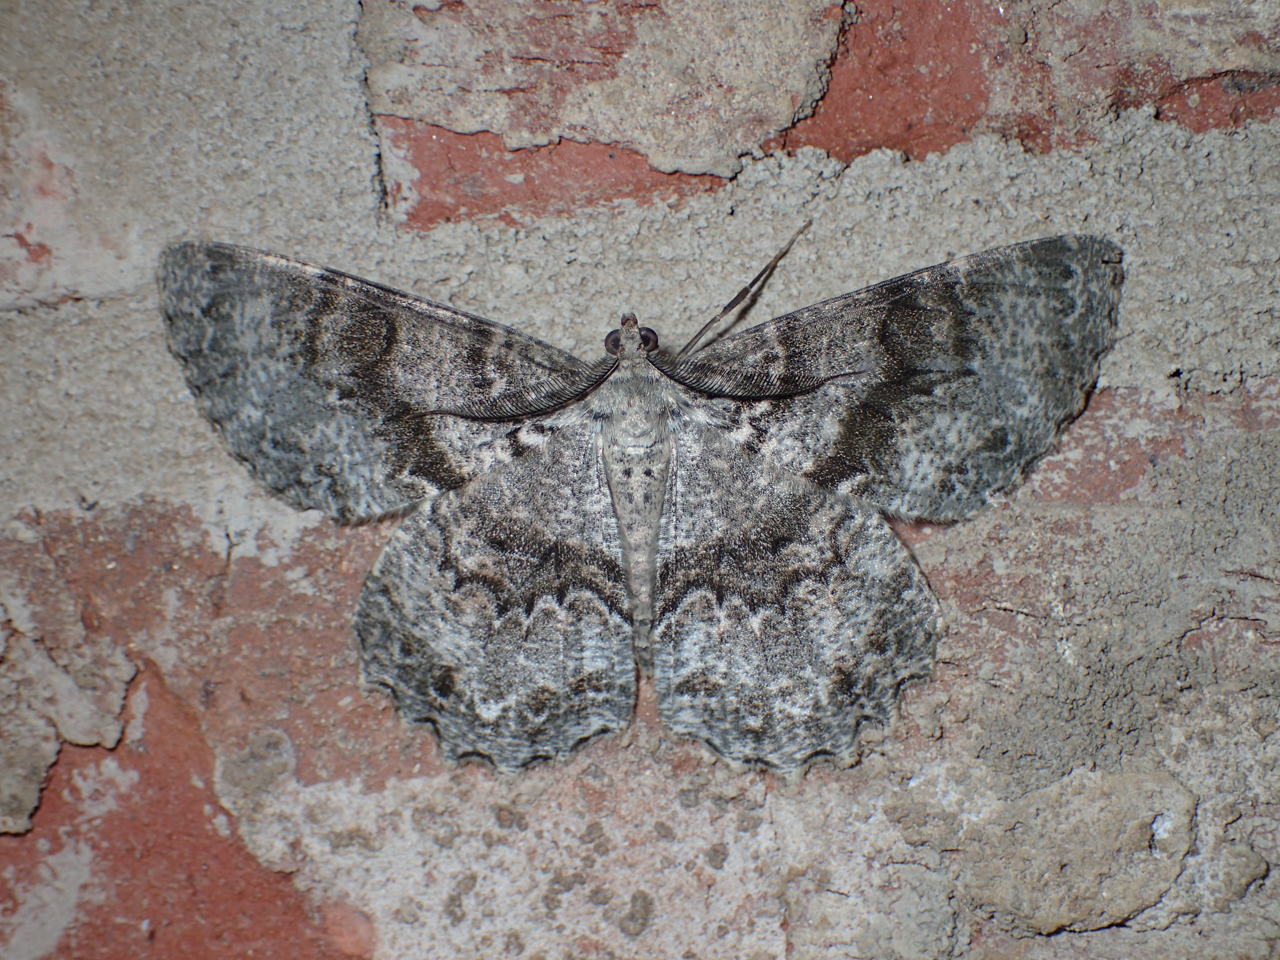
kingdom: Animalia
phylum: Arthropoda
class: Insecta
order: Lepidoptera
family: Geometridae
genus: Epimecis
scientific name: Epimecis hortaria
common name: Tulip-tree beauty
